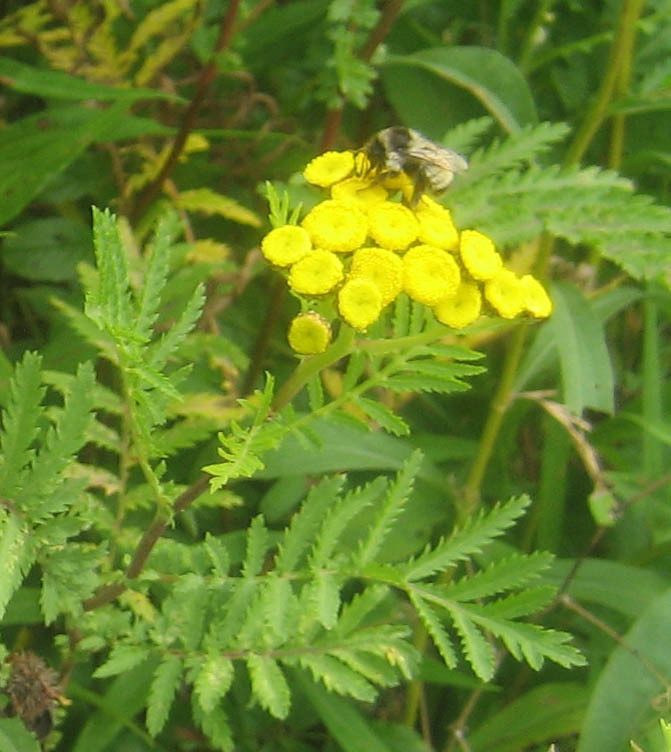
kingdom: Plantae
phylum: Tracheophyta
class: Magnoliopsida
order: Asterales
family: Asteraceae
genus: Tanacetum
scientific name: Tanacetum vulgare
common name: Common tansy
